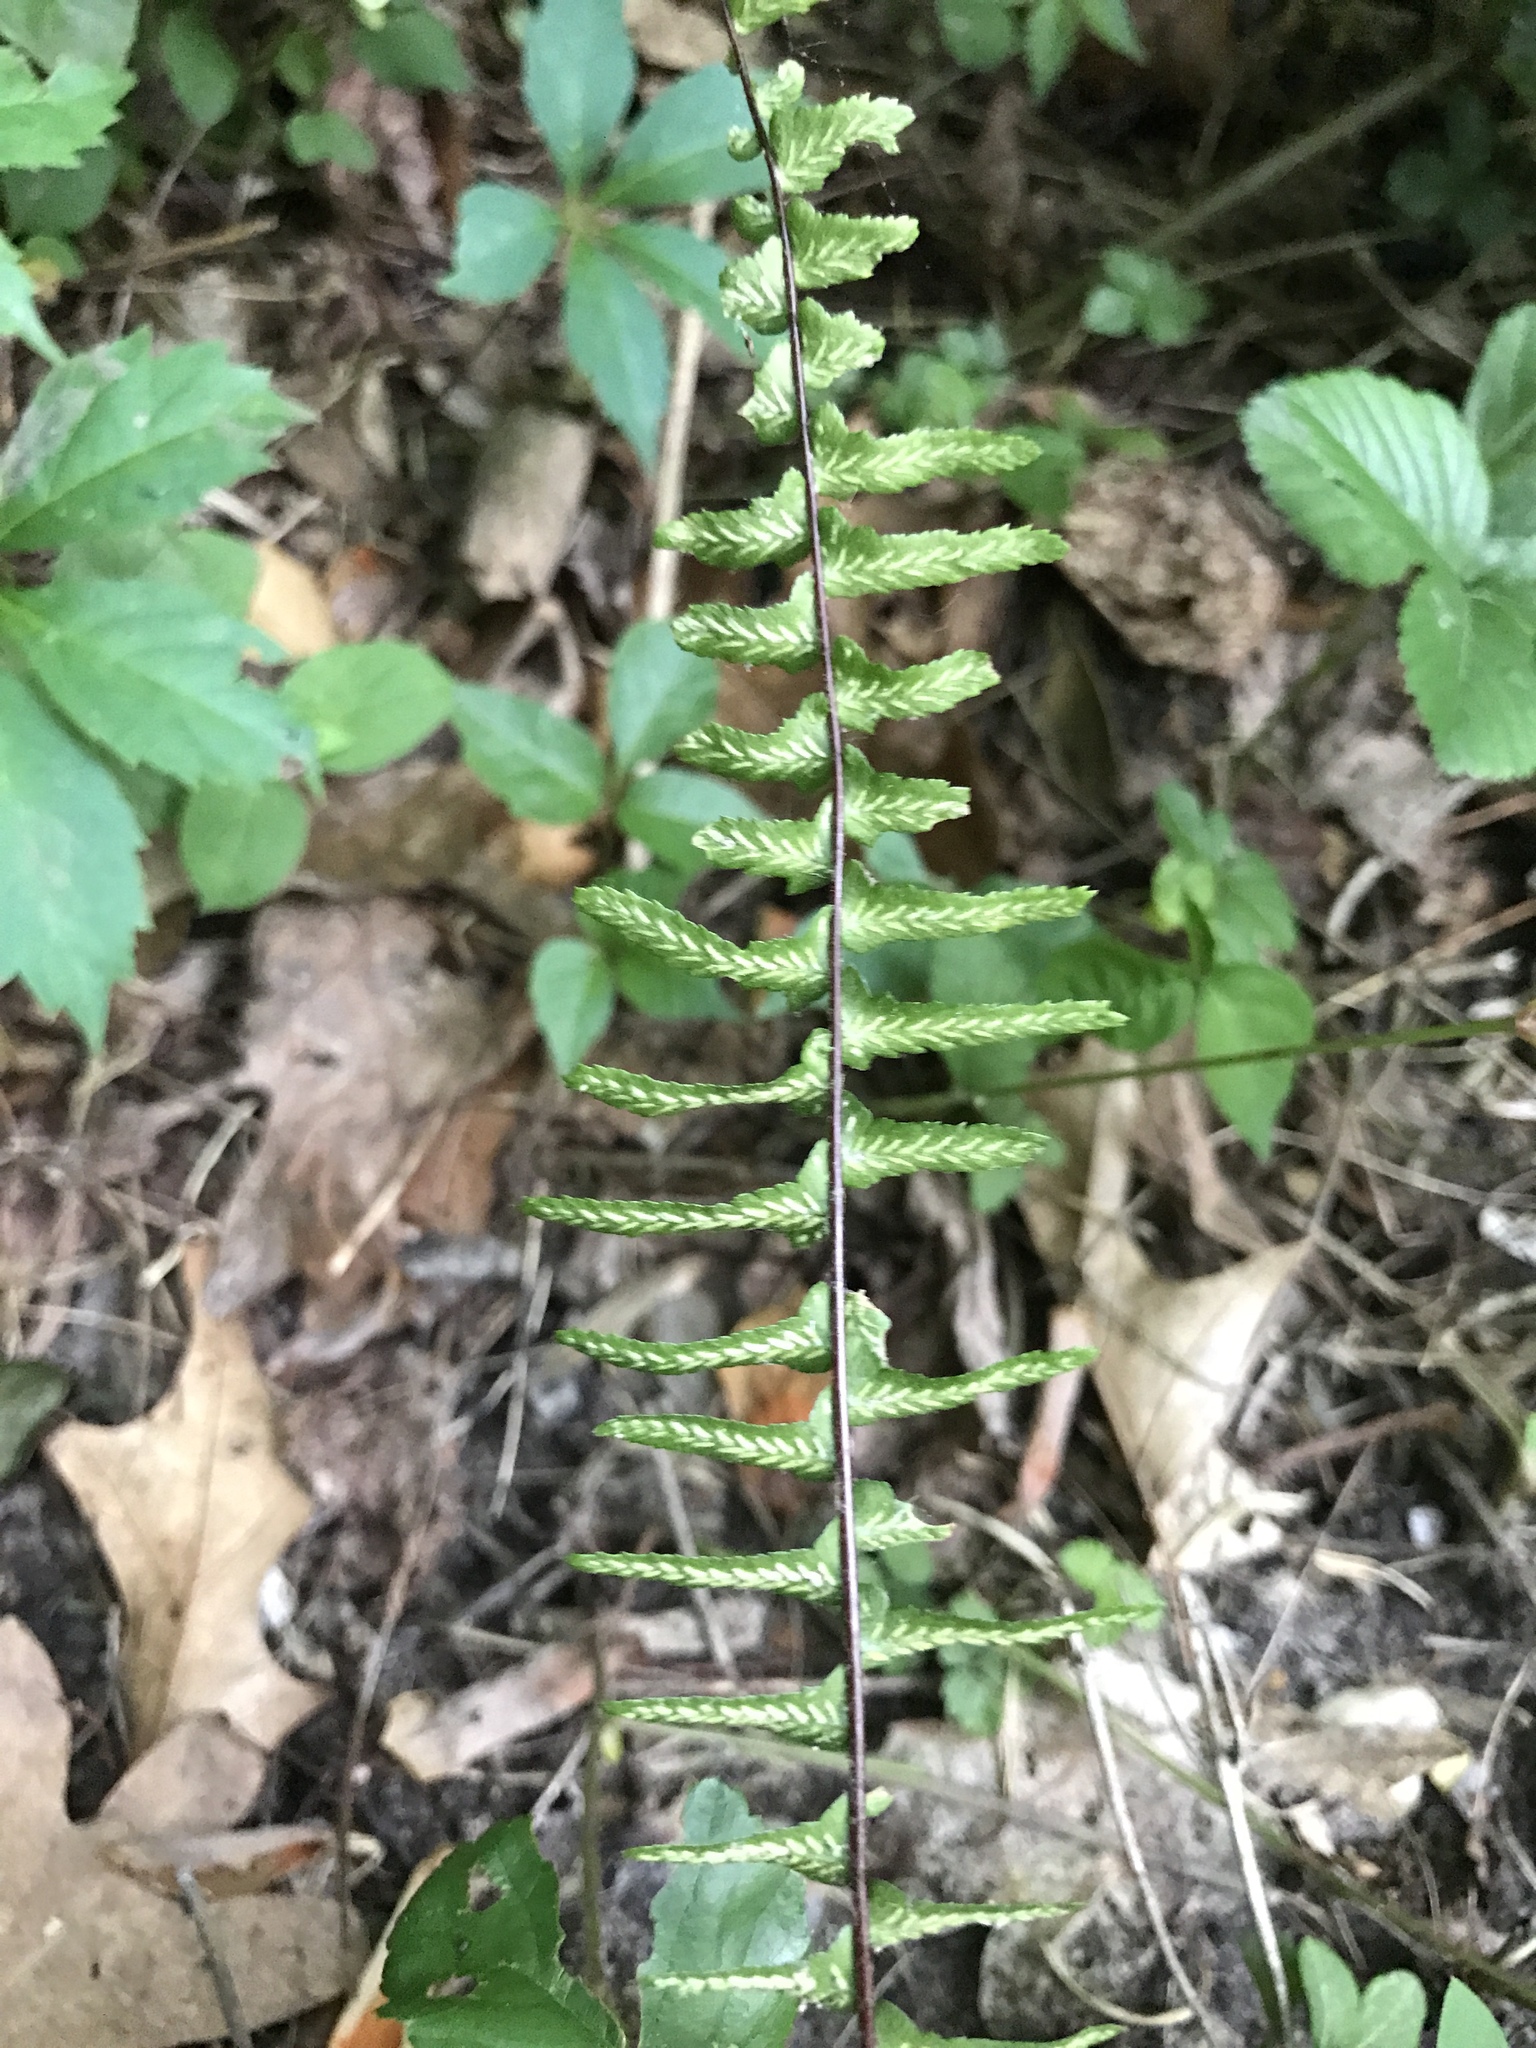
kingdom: Plantae
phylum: Tracheophyta
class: Polypodiopsida
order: Polypodiales
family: Aspleniaceae
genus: Asplenium
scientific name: Asplenium platyneuron
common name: Ebony spleenwort
